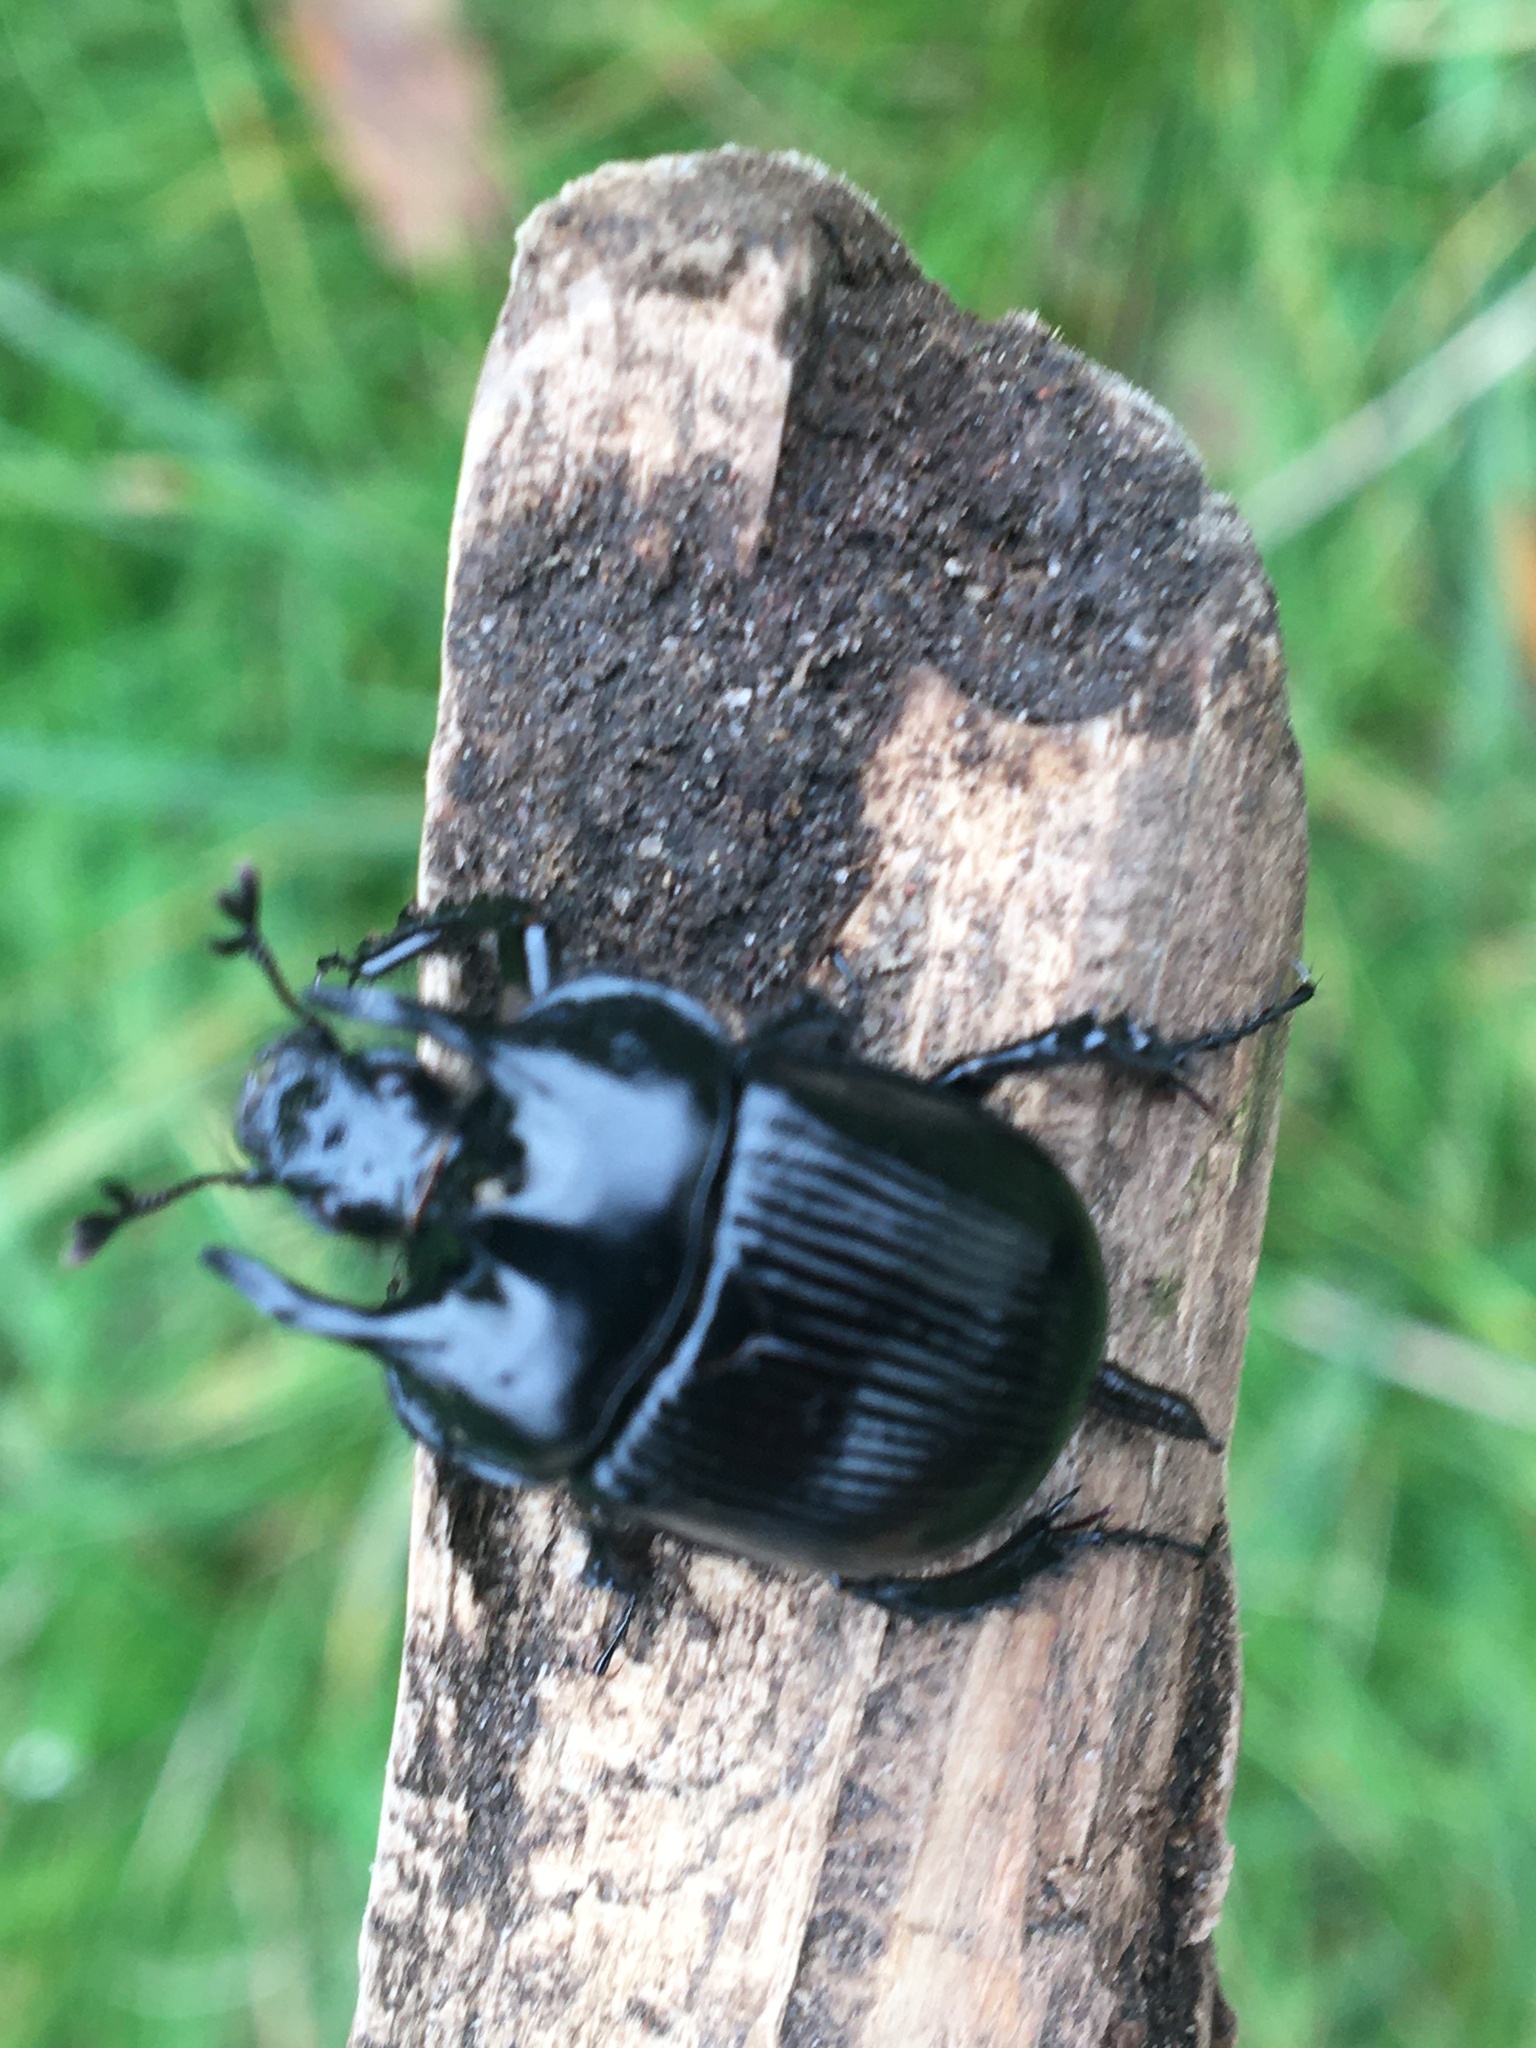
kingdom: Animalia
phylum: Arthropoda
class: Insecta
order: Coleoptera
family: Geotrupidae
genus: Typhaeus
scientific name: Typhaeus typhoeus
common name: Minotaur beetle
